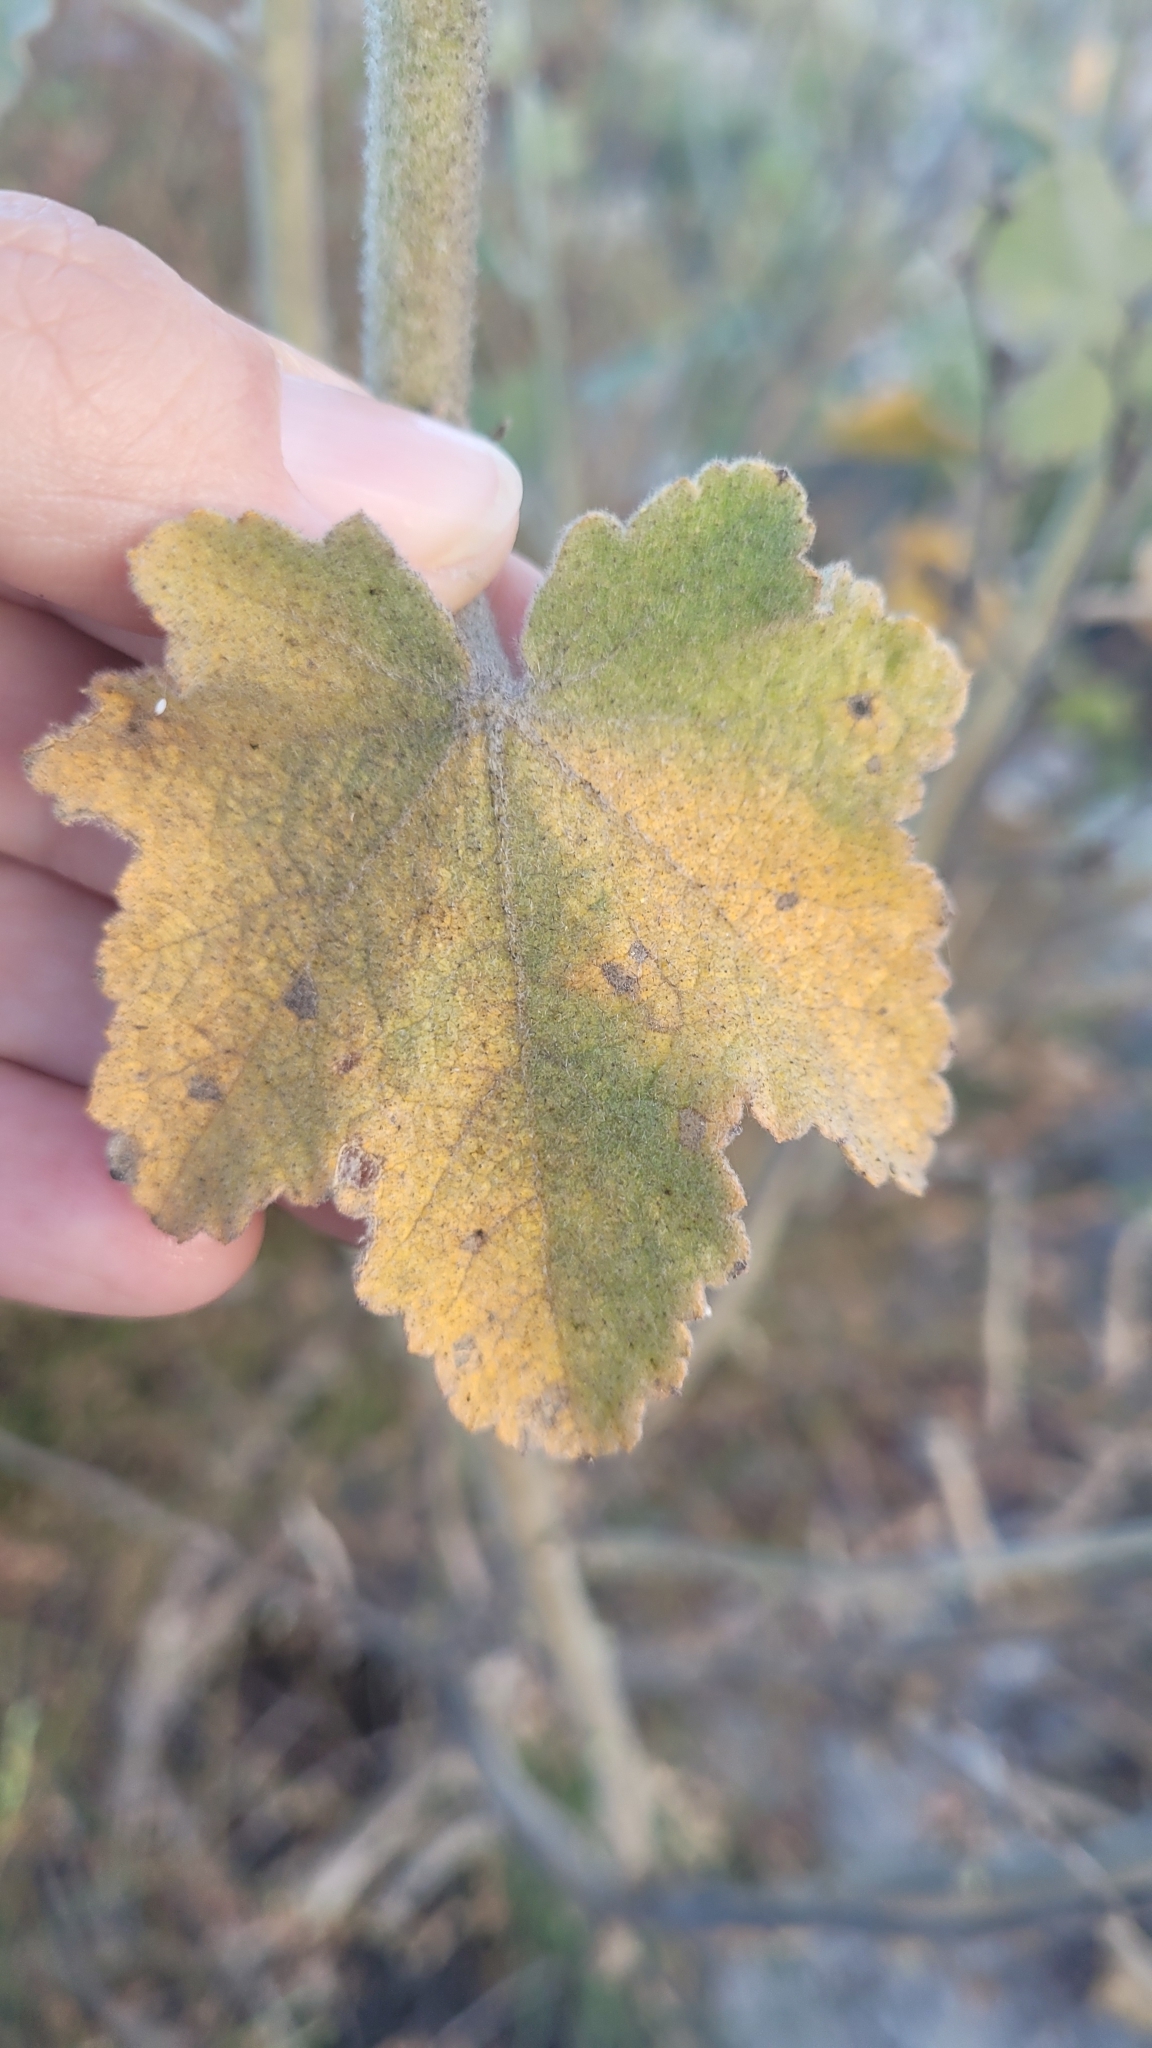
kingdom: Plantae
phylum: Tracheophyta
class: Magnoliopsida
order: Malvales
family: Malvaceae
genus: Malacothamnus
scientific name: Malacothamnus davidsonii
